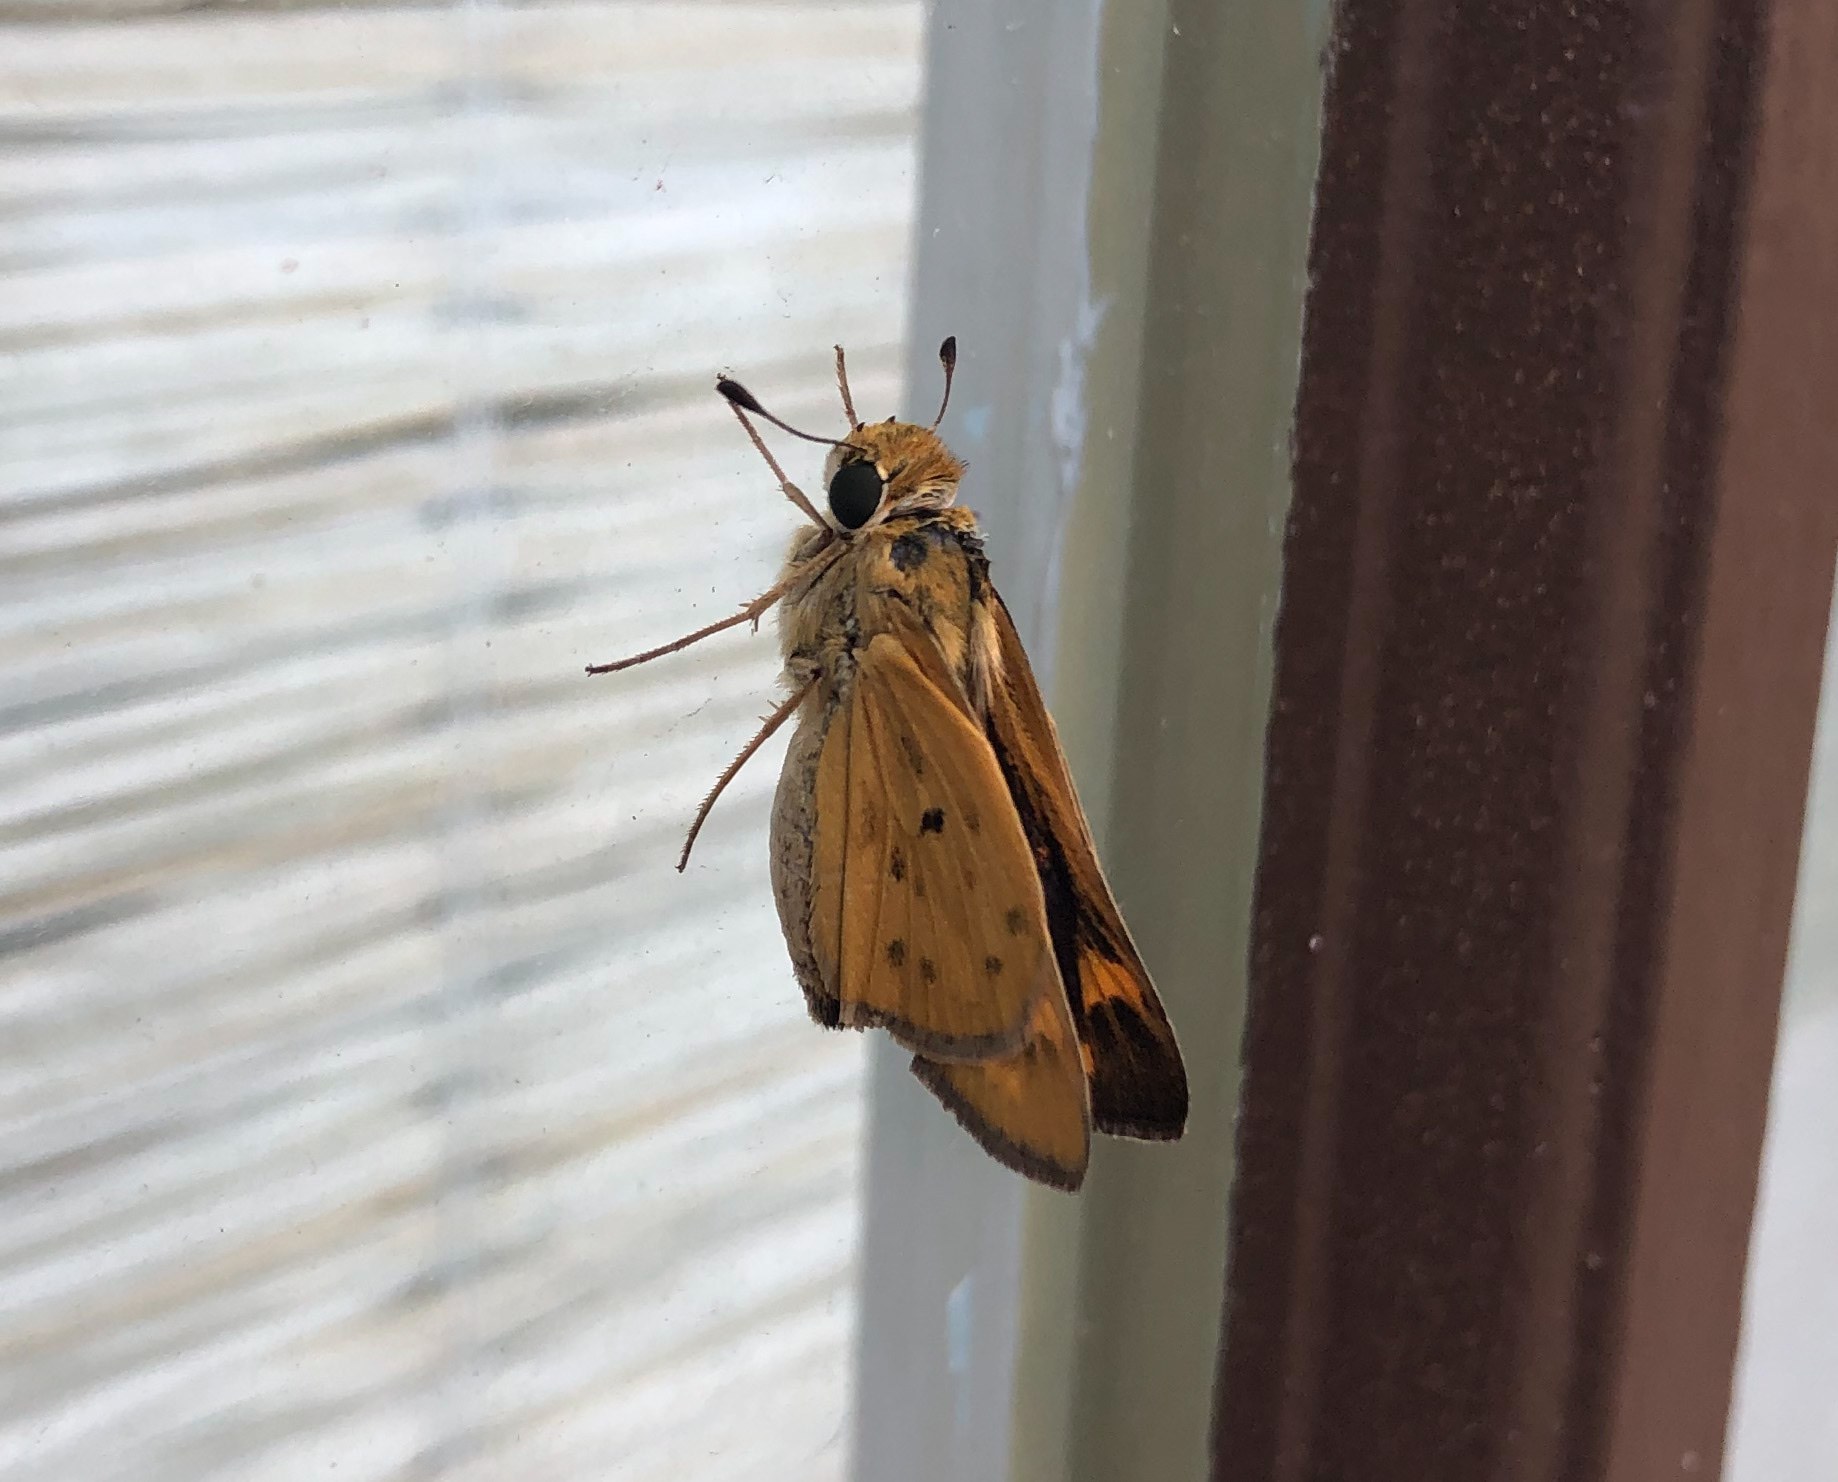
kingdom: Animalia
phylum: Arthropoda
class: Insecta
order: Lepidoptera
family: Hesperiidae
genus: Hylephila
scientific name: Hylephila phyleus
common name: Fiery skipper
